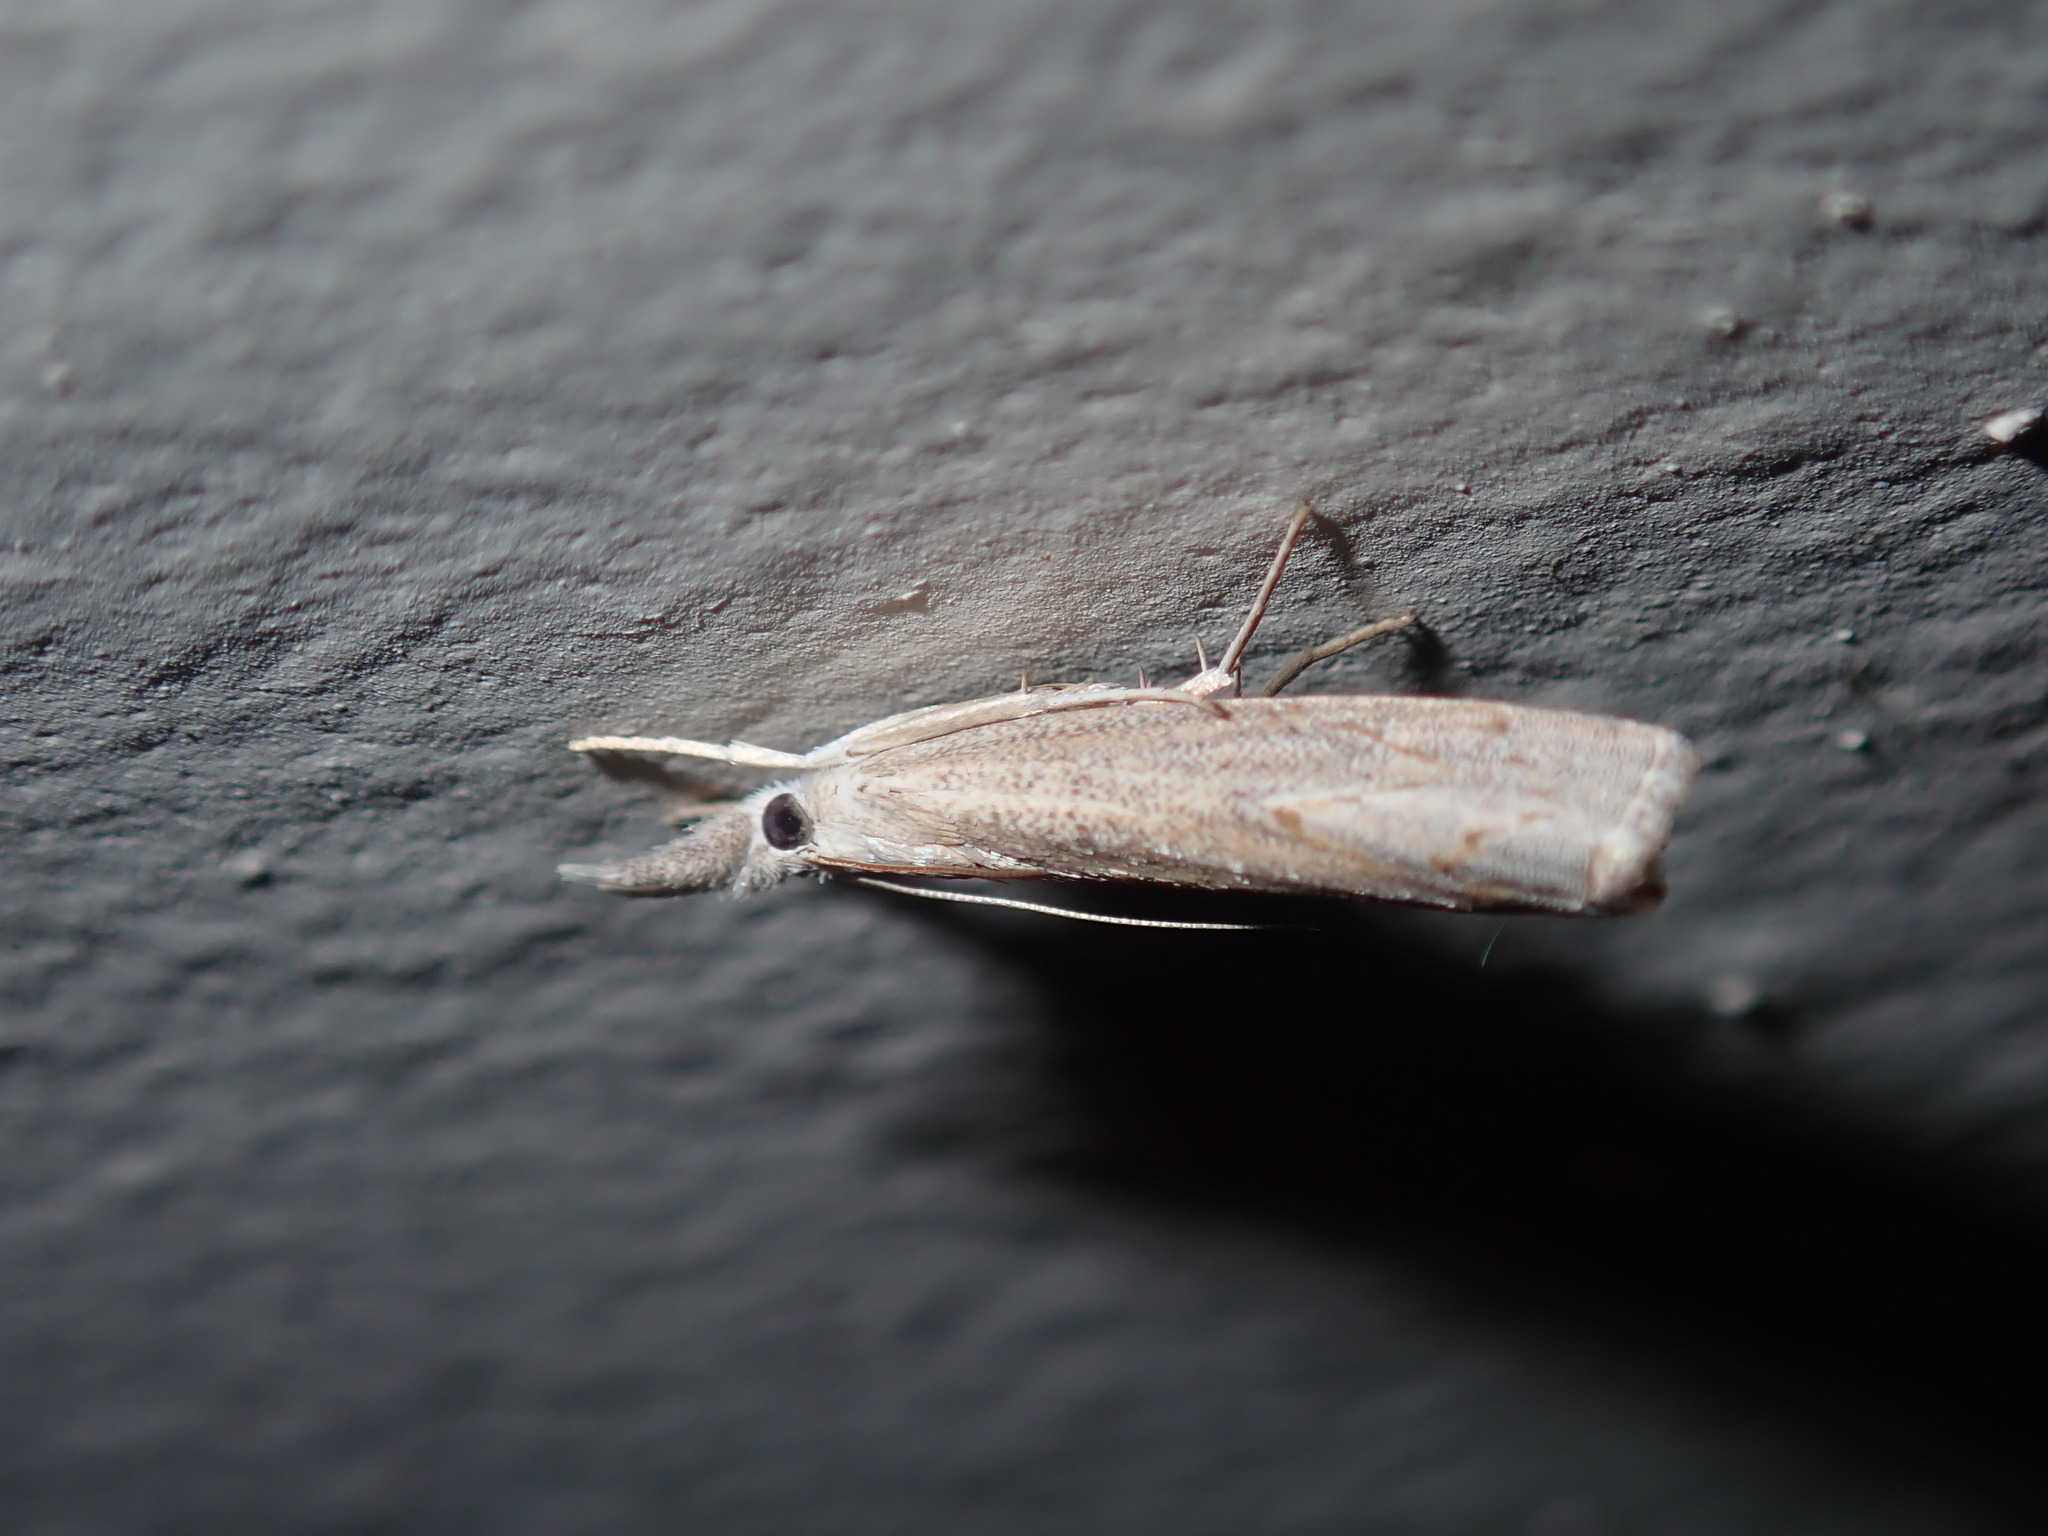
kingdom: Animalia
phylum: Arthropoda
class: Insecta
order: Lepidoptera
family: Crambidae
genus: Culladia
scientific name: Culladia cuneiferellus
